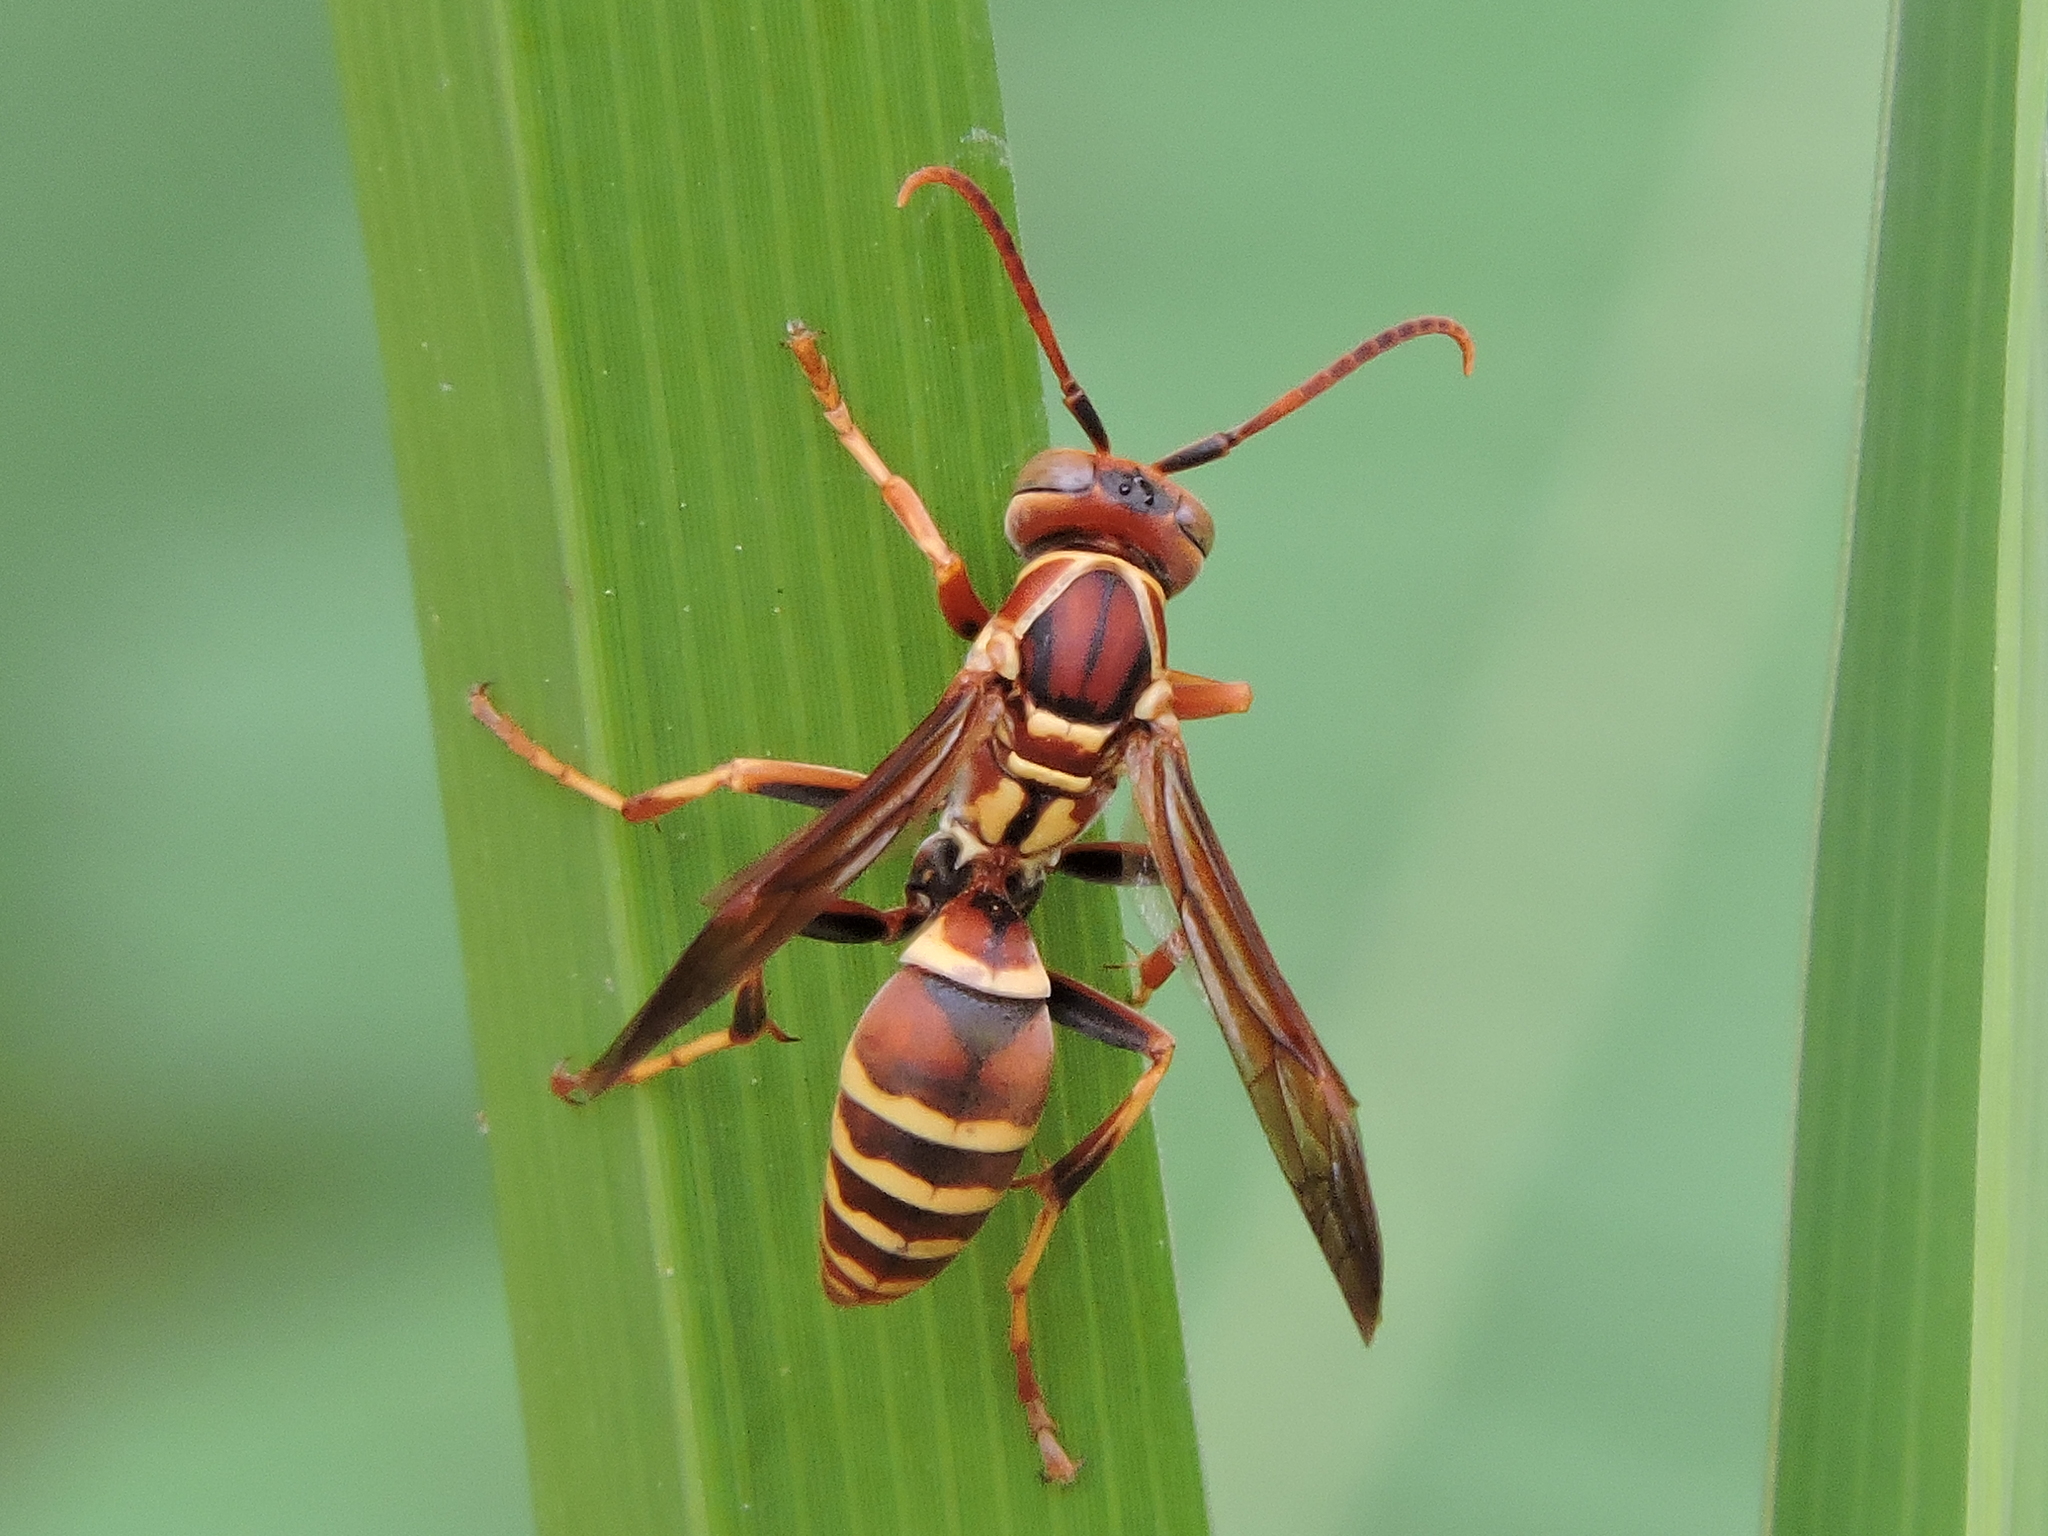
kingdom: Animalia
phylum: Arthropoda
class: Insecta
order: Hymenoptera
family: Eumenidae
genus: Polistes
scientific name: Polistes dorsalis
